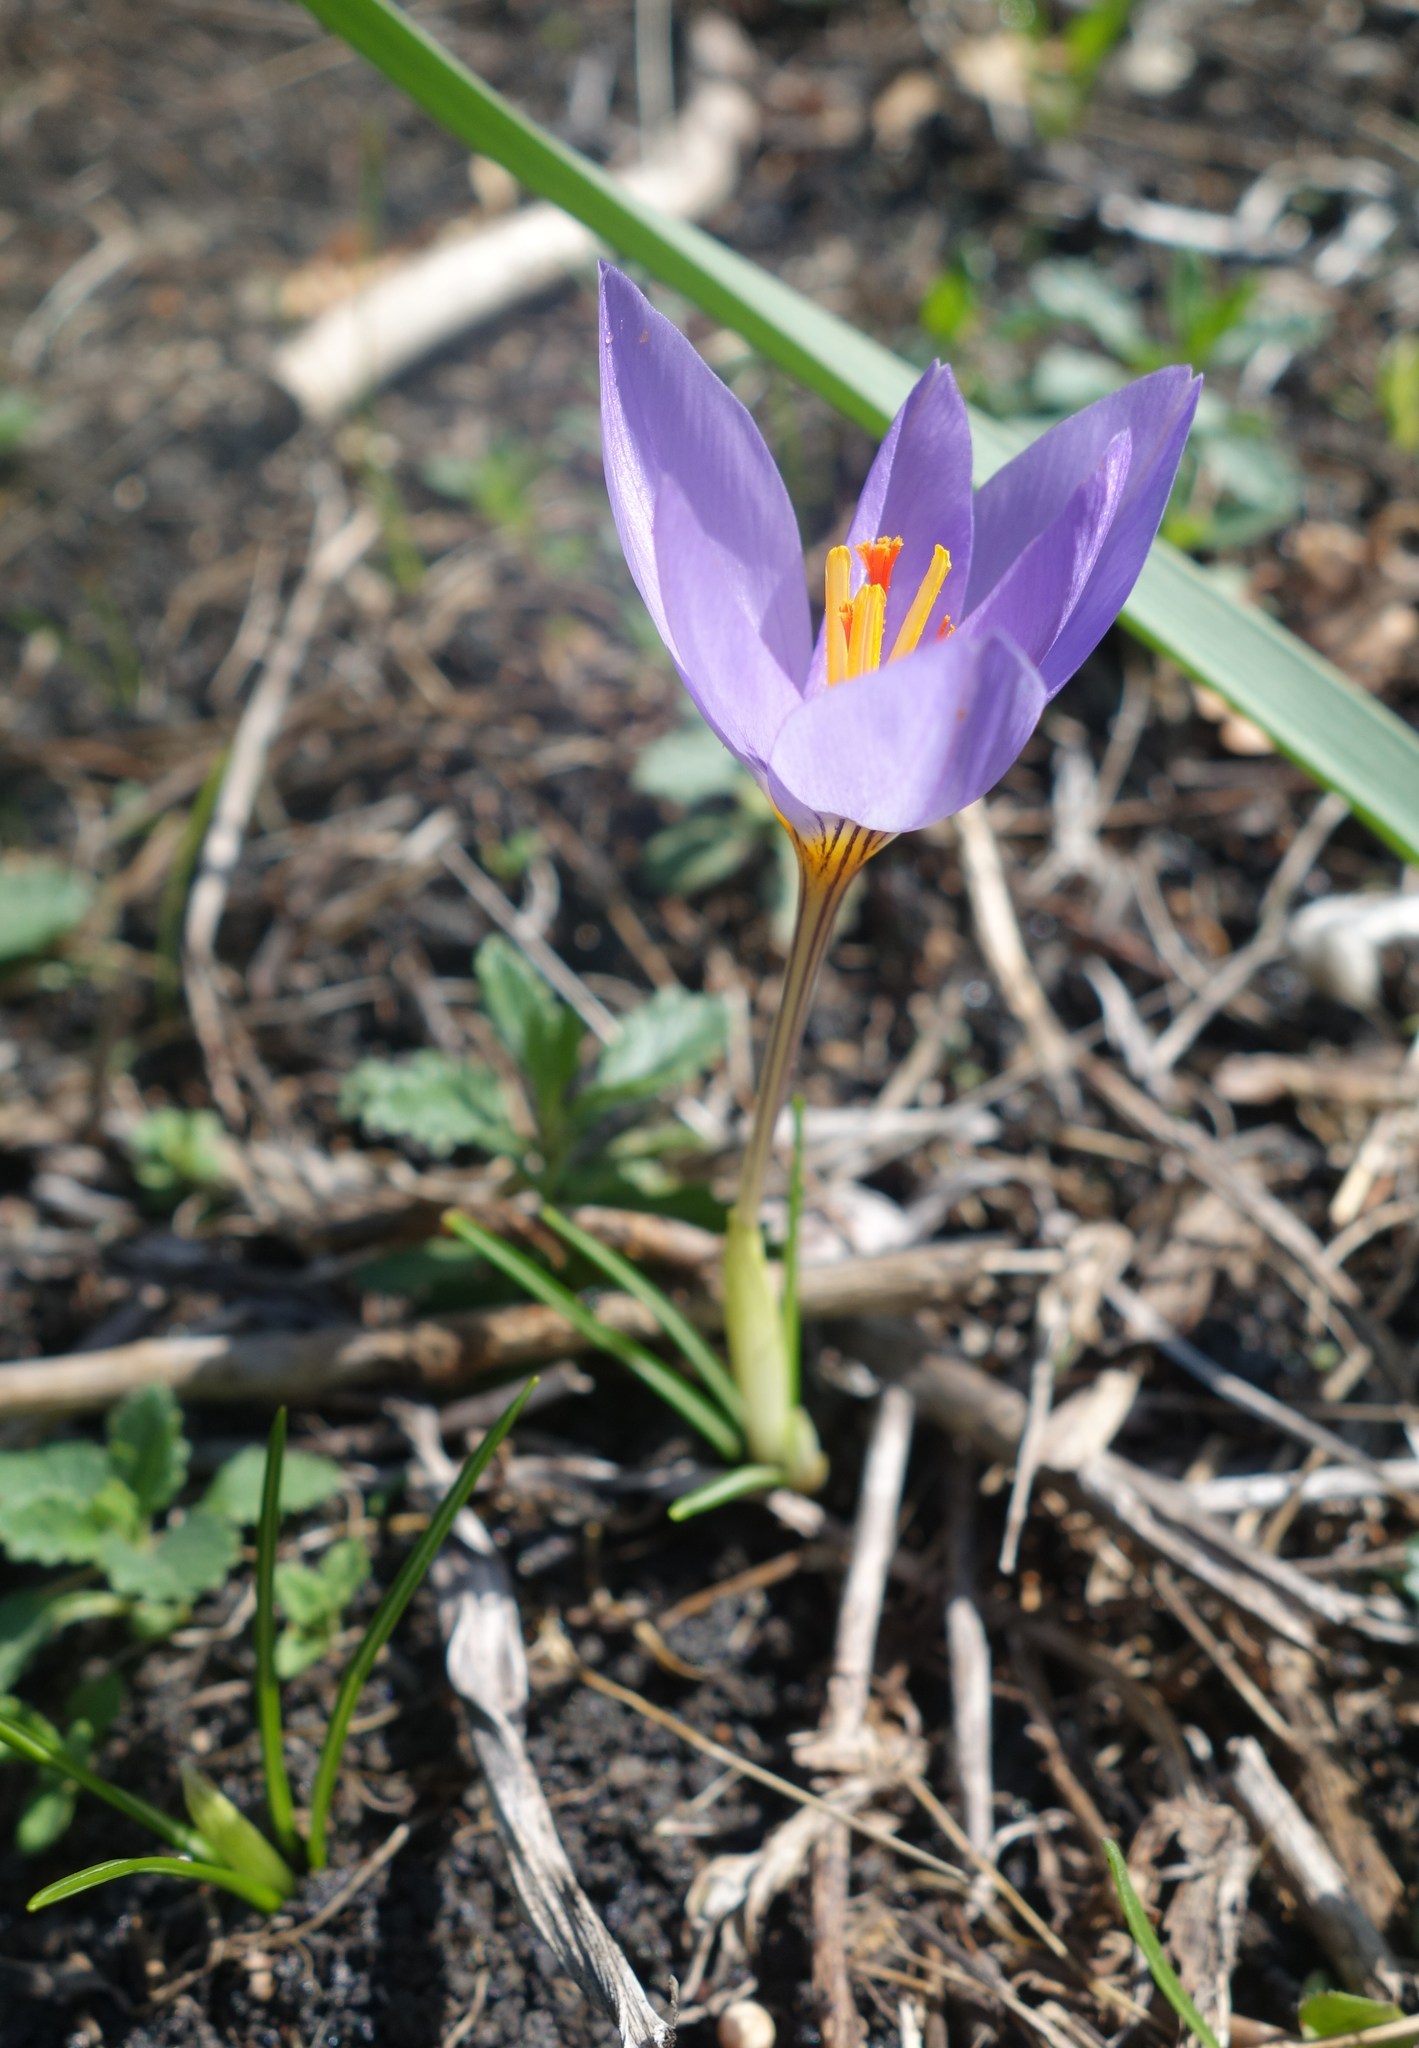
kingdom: Plantae
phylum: Tracheophyta
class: Liliopsida
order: Asparagales
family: Iridaceae
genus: Crocus
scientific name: Crocus longiflorus
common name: Italian crocus
